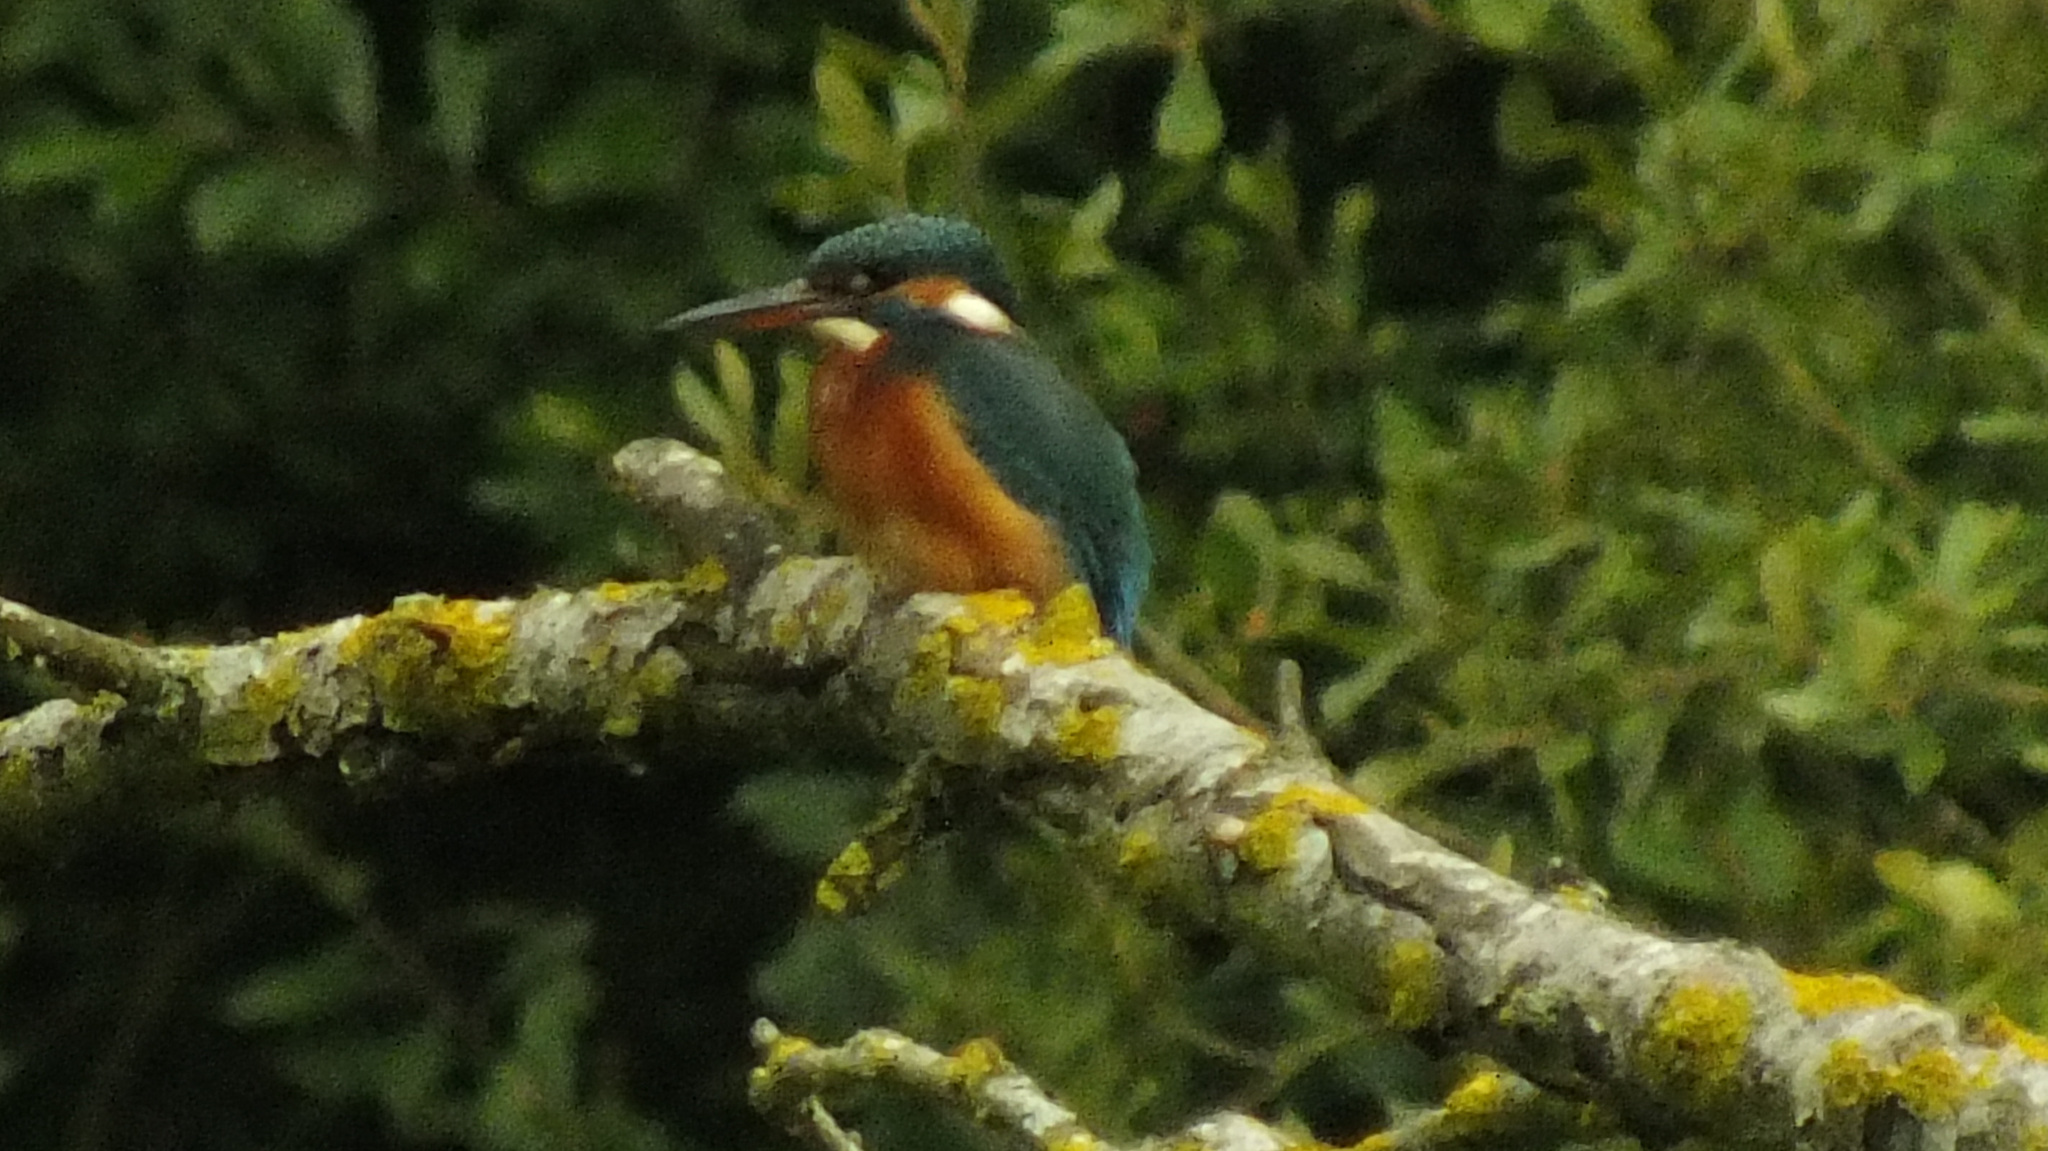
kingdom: Animalia
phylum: Chordata
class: Aves
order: Coraciiformes
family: Alcedinidae
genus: Alcedo
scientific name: Alcedo atthis
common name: Common kingfisher
